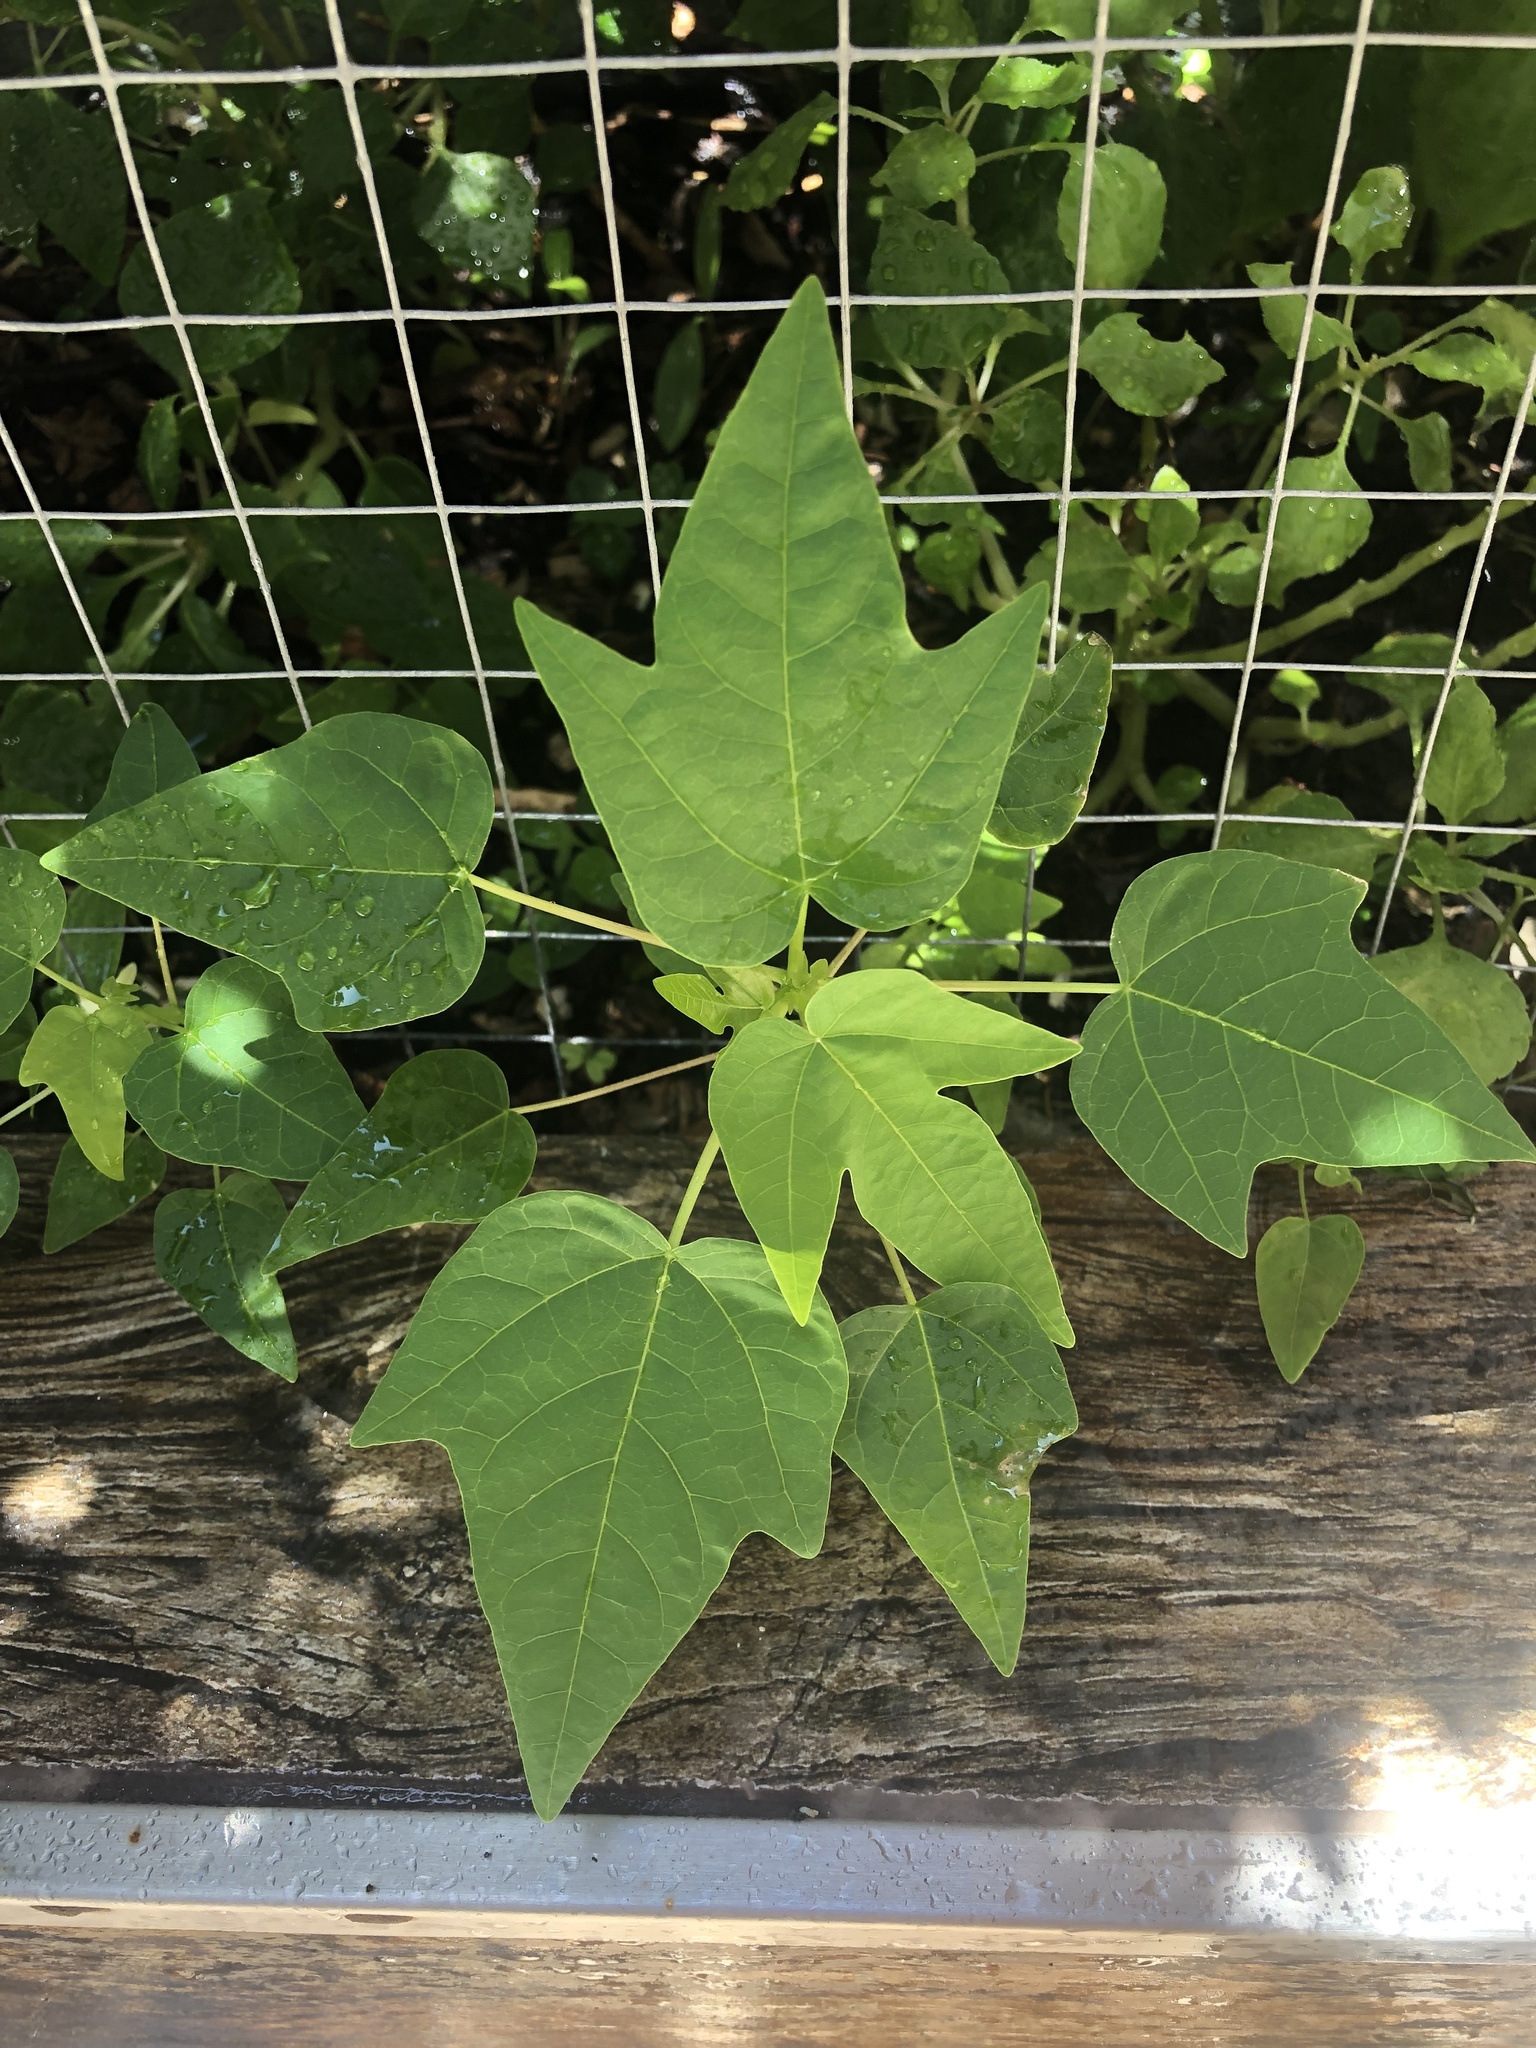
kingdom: Plantae
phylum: Tracheophyta
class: Magnoliopsida
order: Brassicales
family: Caricaceae
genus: Carica
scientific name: Carica papaya
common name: Papaya
